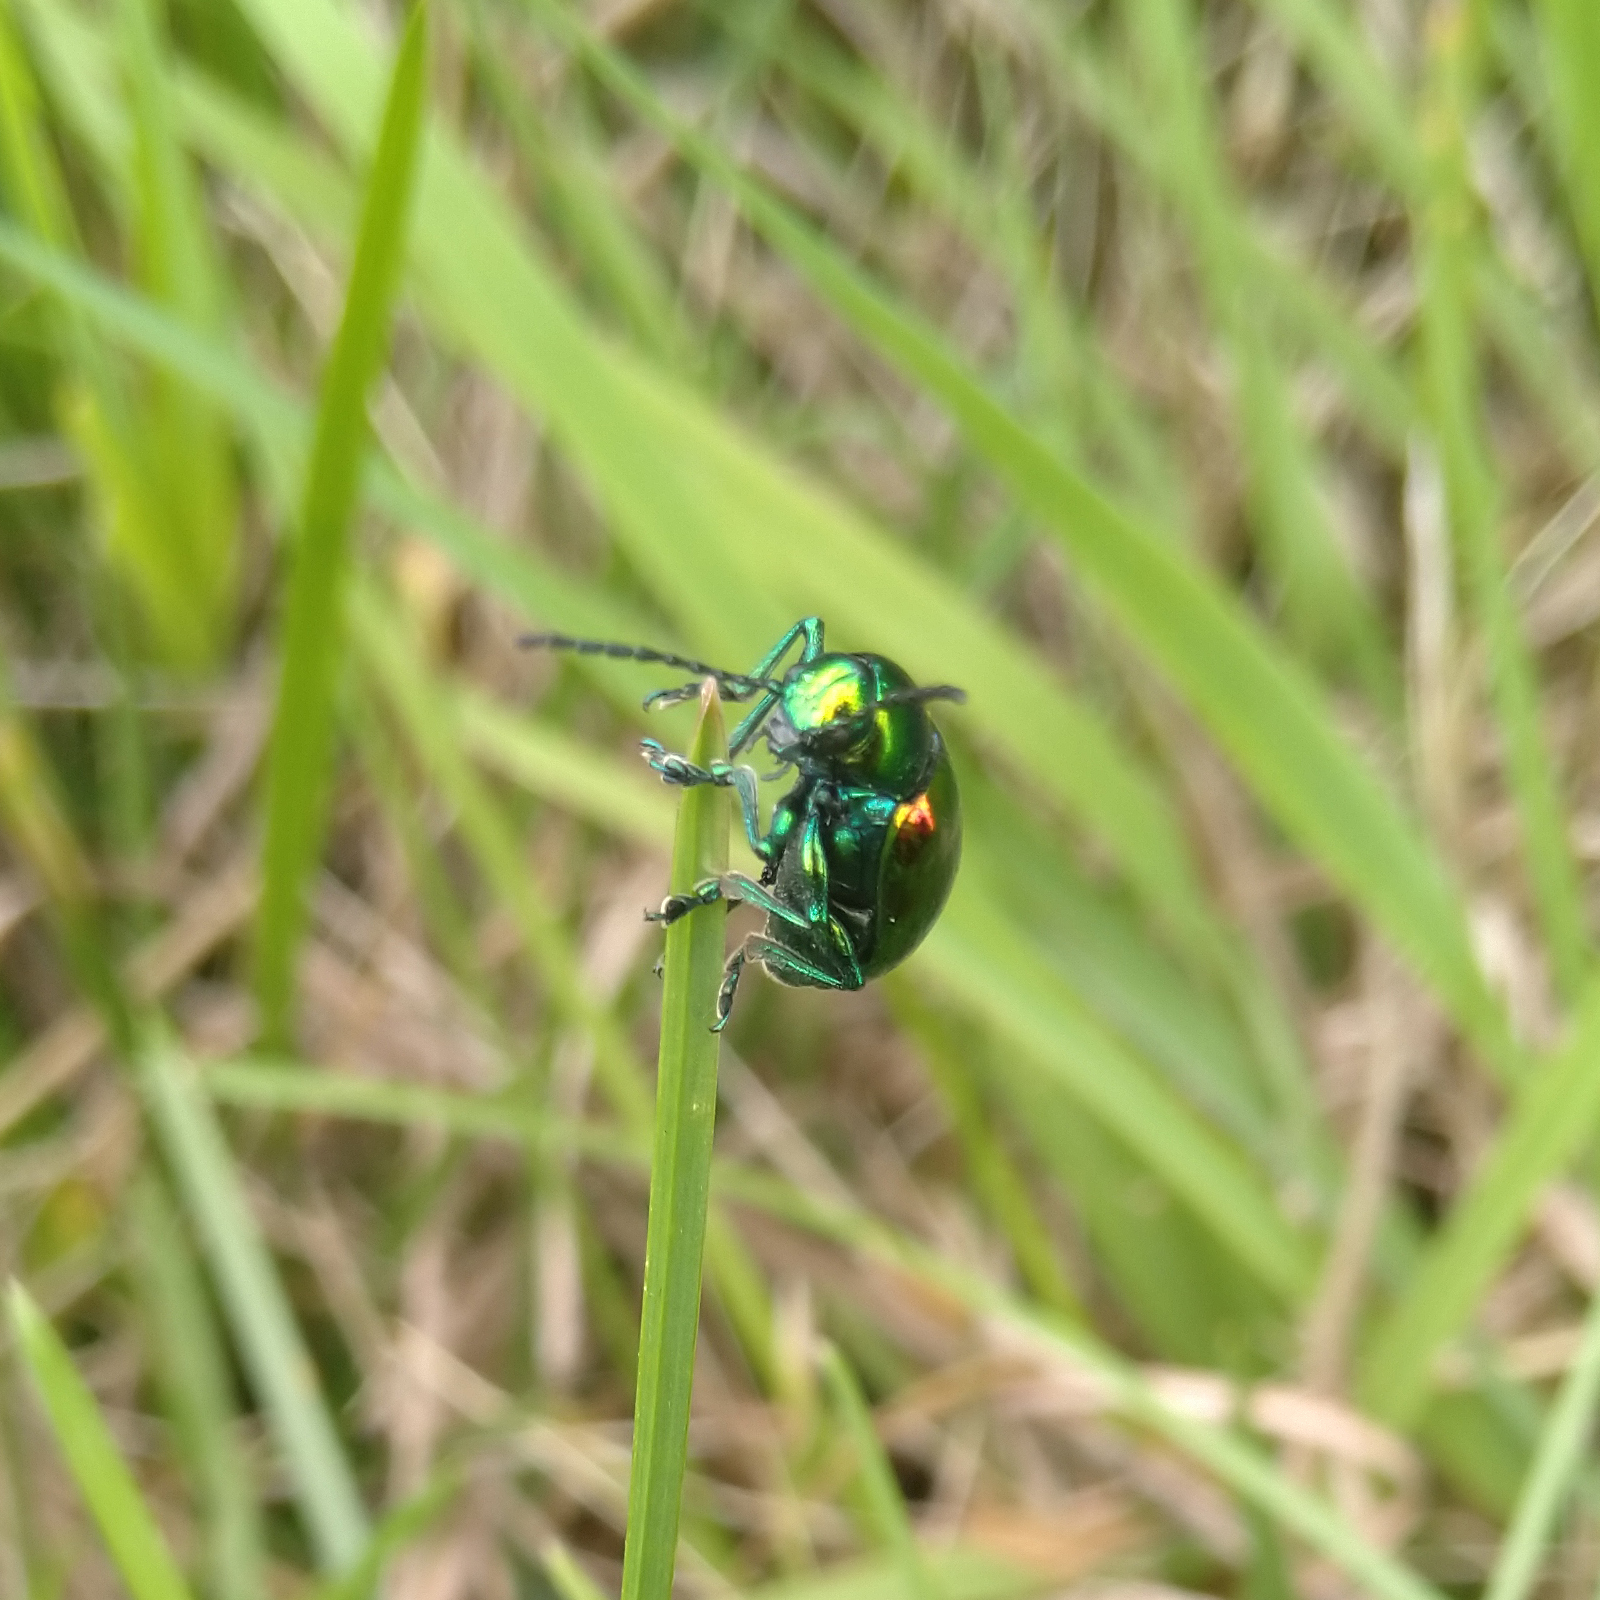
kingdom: Animalia
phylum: Arthropoda
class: Insecta
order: Coleoptera
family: Chrysomelidae
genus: Chrysochus
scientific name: Chrysochus auratus
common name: Dogbane leaf beetle
